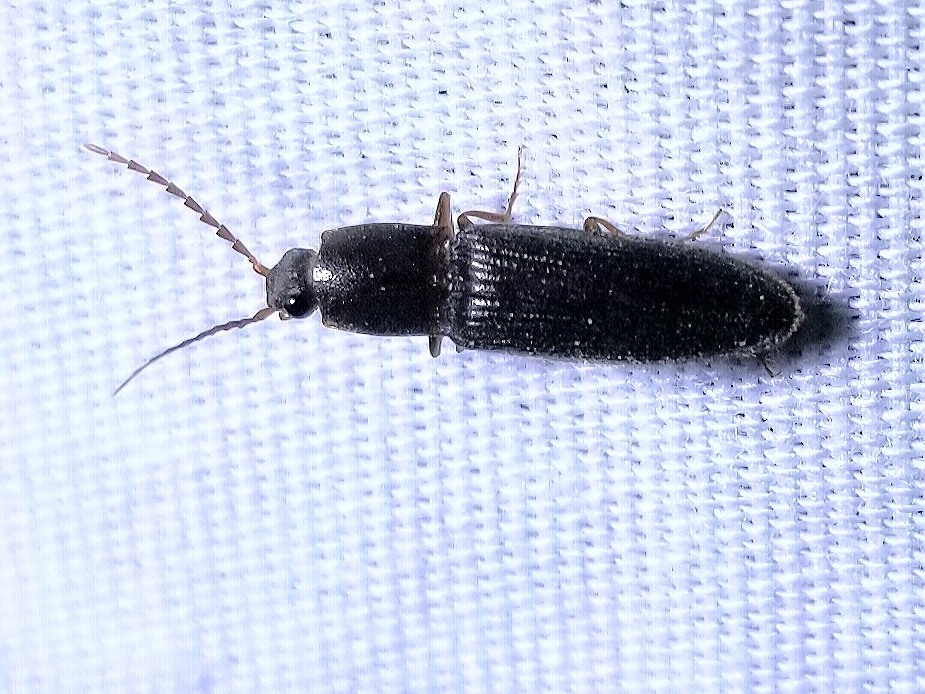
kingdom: Animalia
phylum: Arthropoda
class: Insecta
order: Coleoptera
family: Elateridae
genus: Conoderus
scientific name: Conoderus exsul
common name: Click beetle
